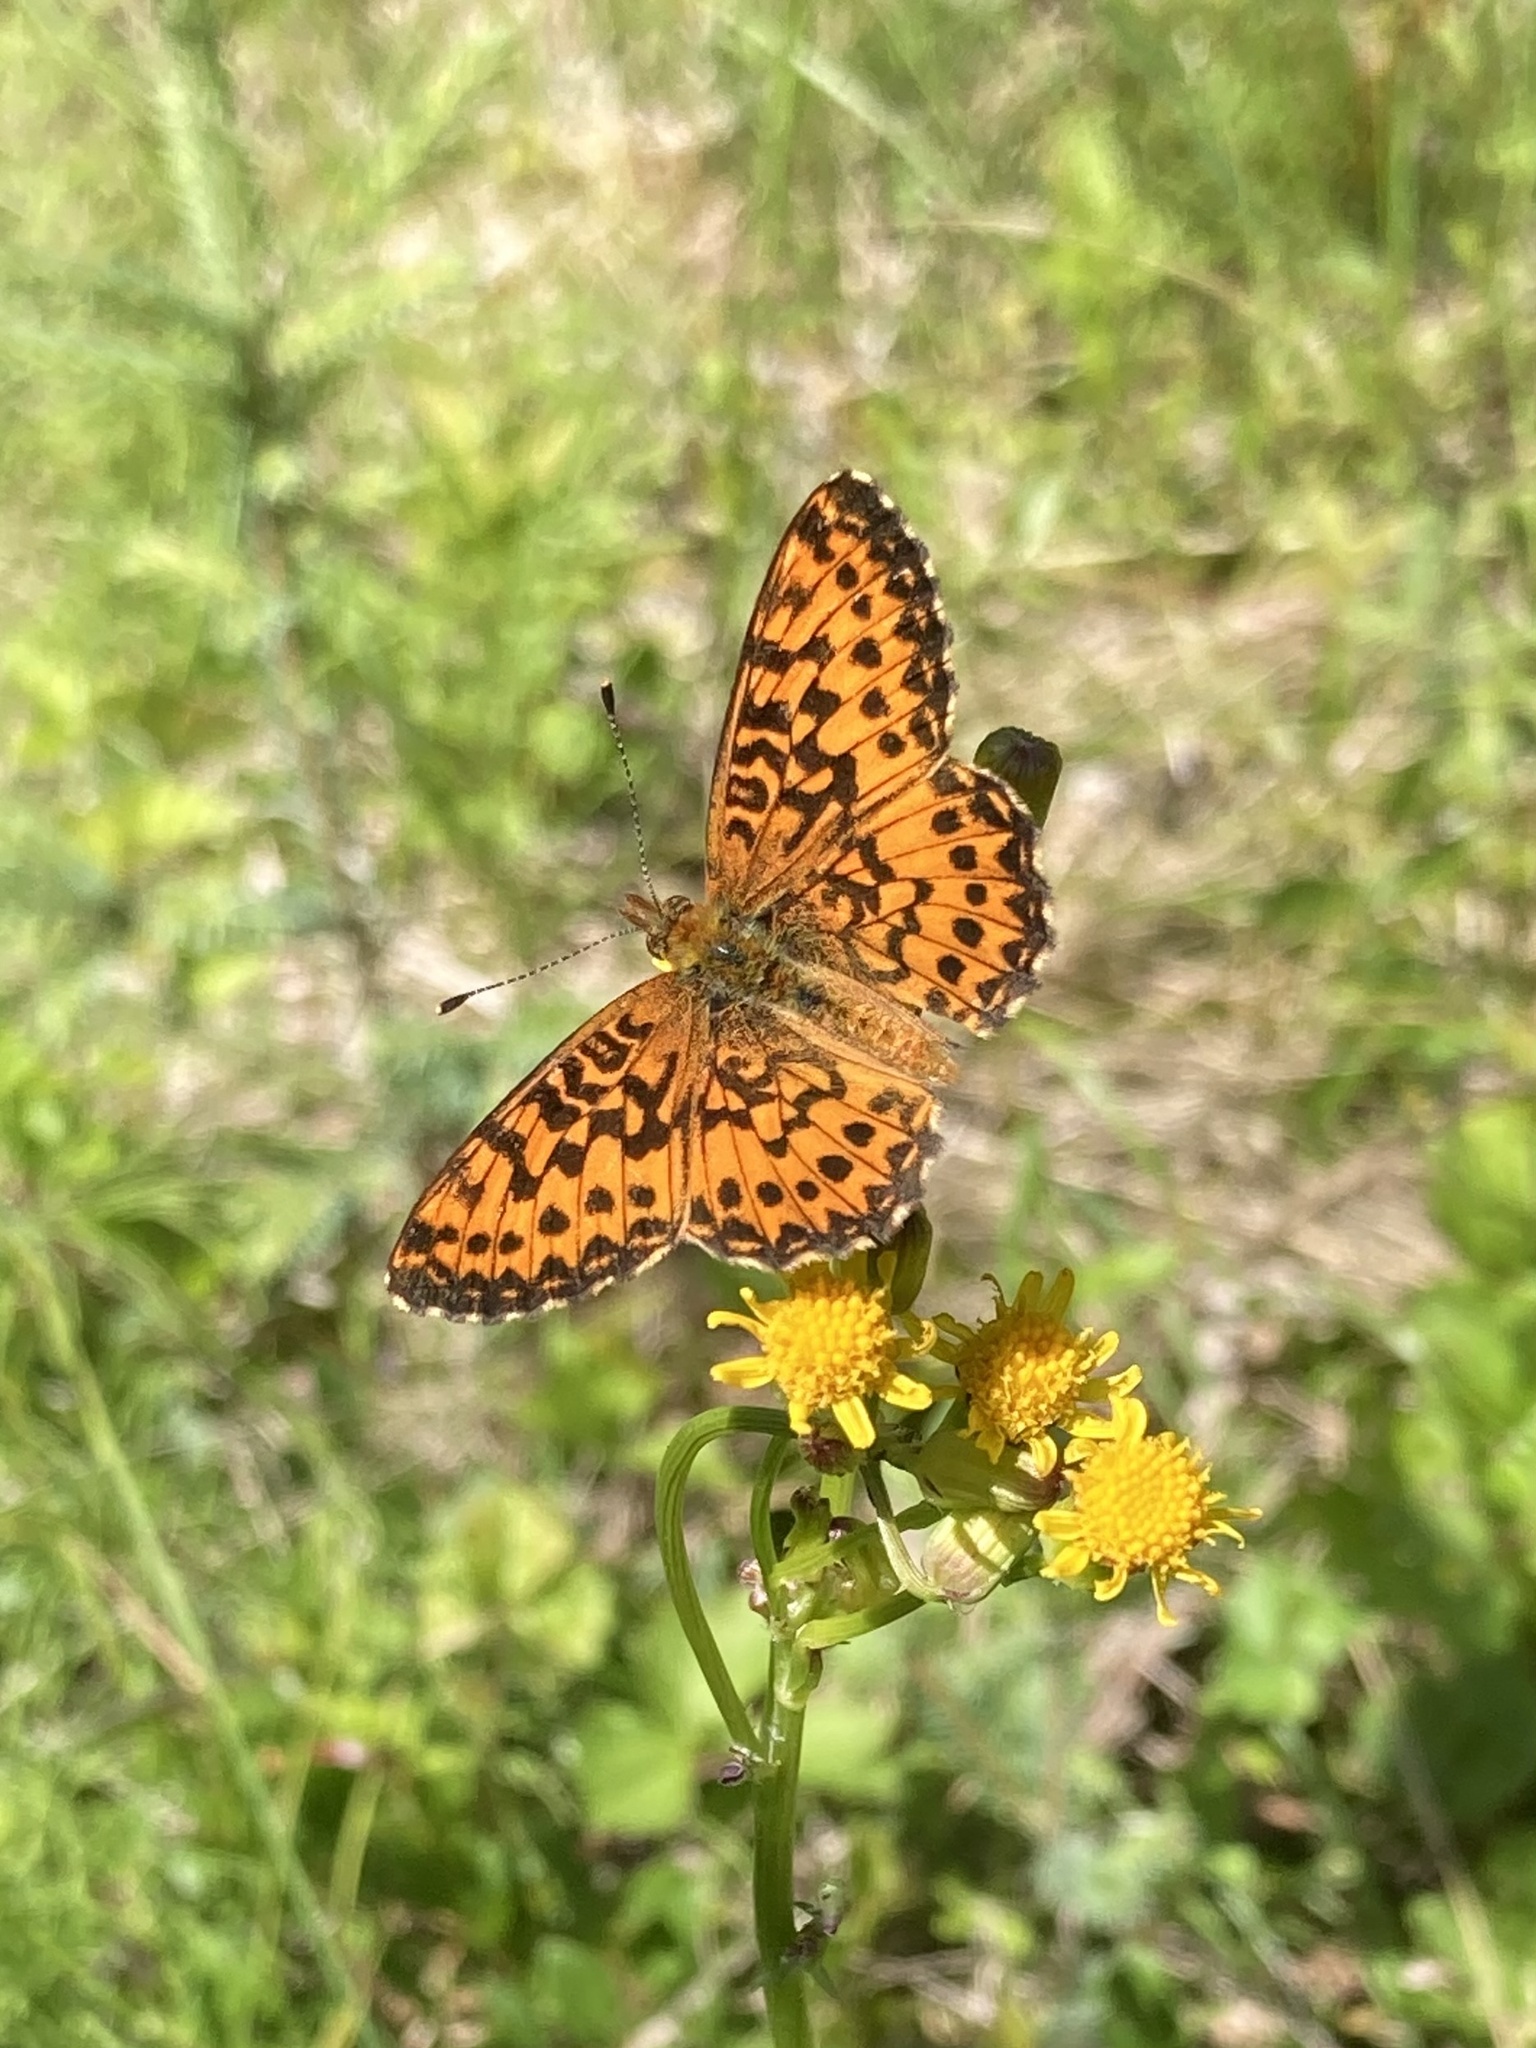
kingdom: Animalia
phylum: Arthropoda
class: Insecta
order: Lepidoptera
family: Nymphalidae
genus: Boloria
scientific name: Boloria chariclea
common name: Arctic fritillary
